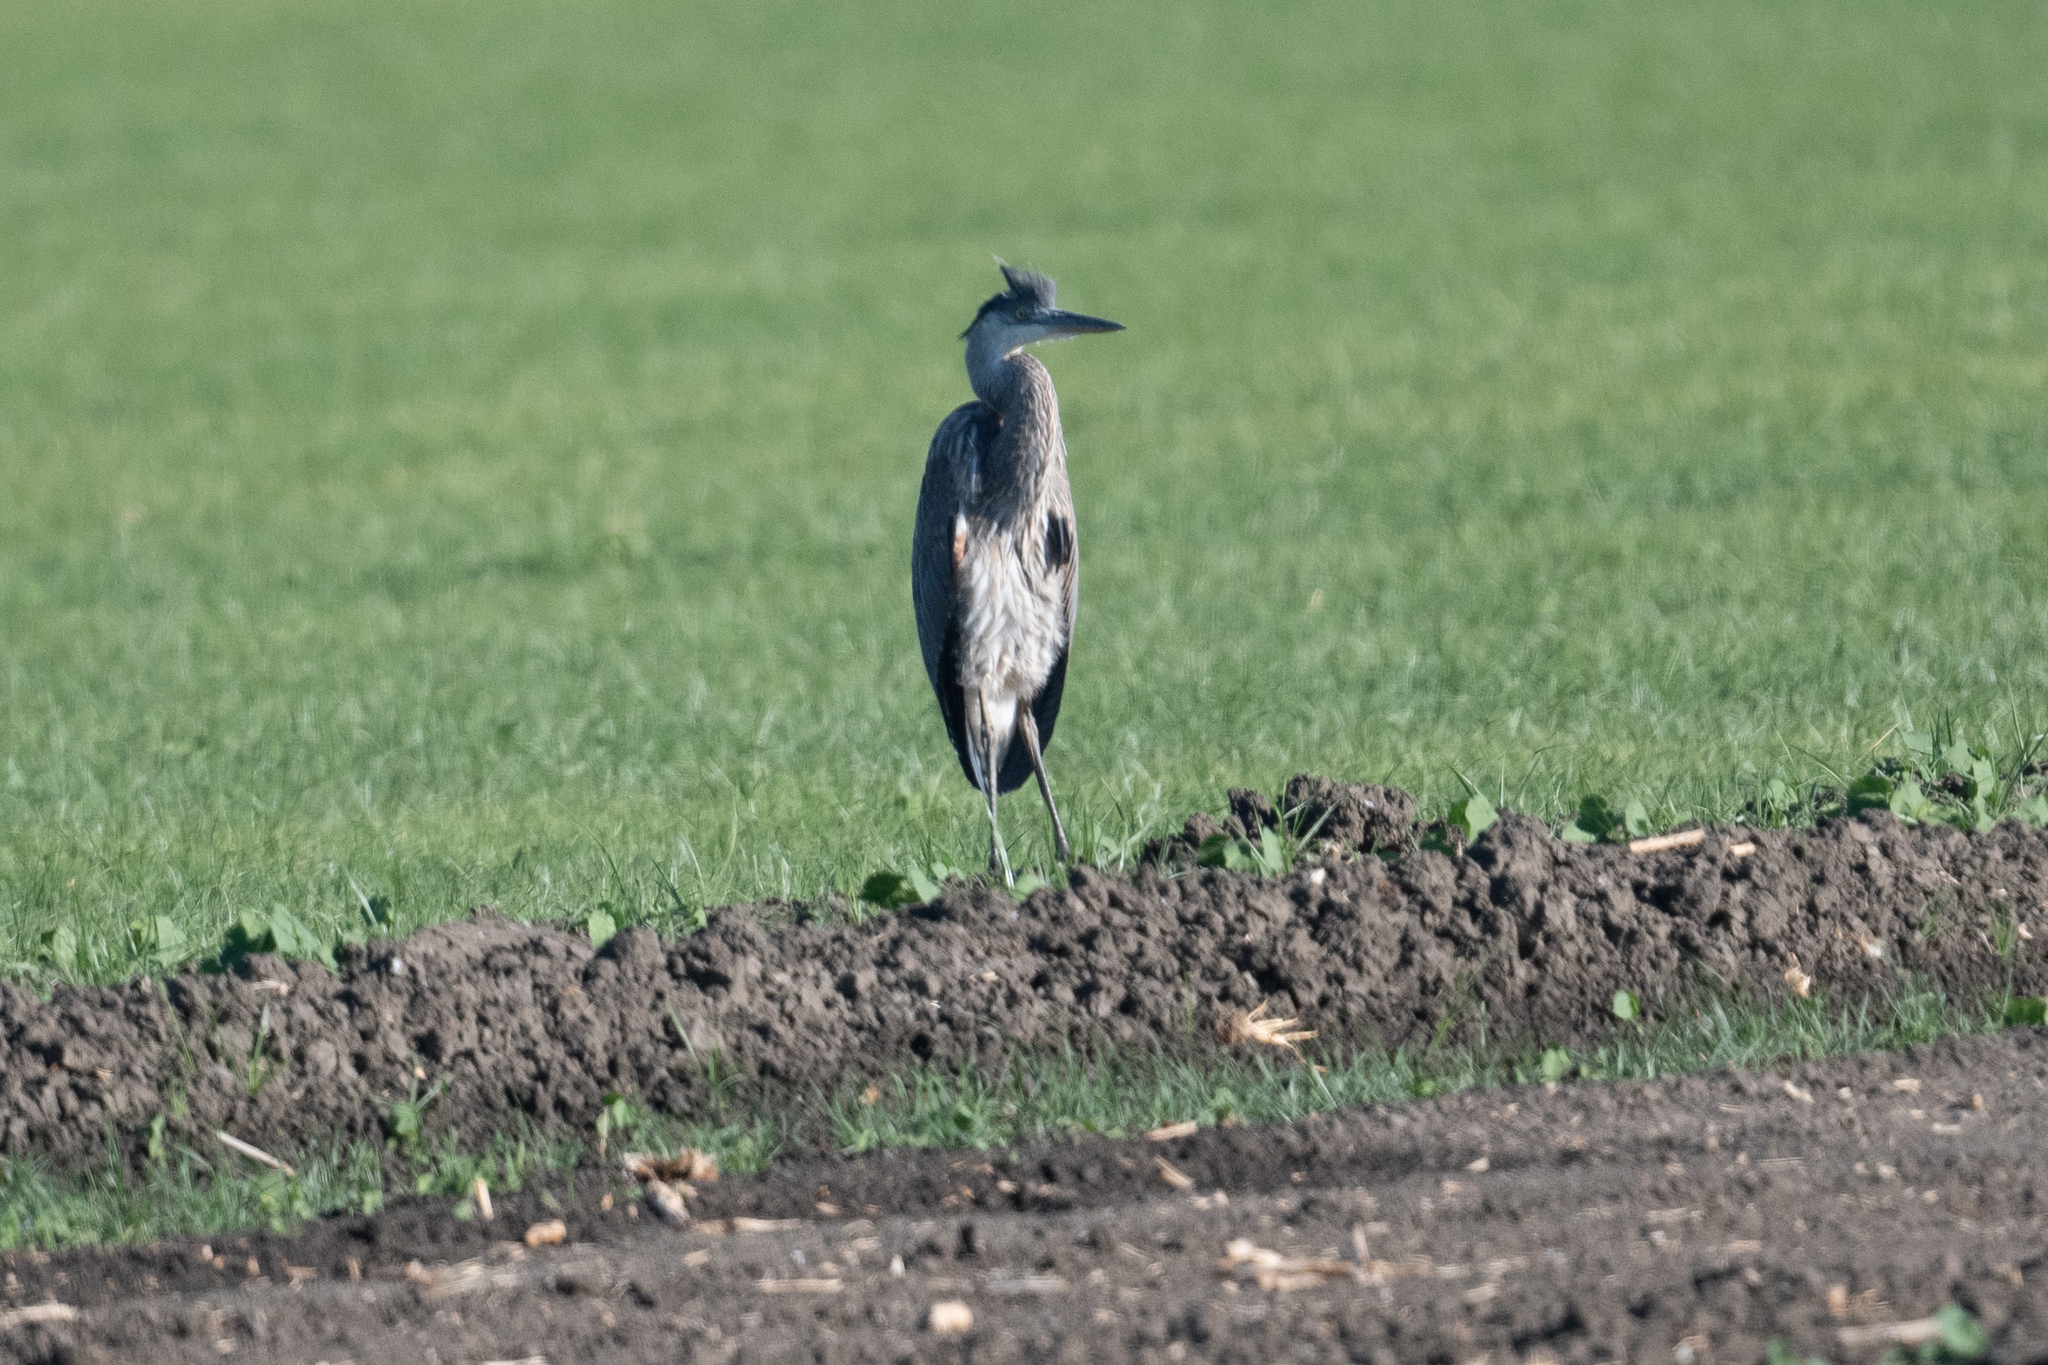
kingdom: Animalia
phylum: Chordata
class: Aves
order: Pelecaniformes
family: Ardeidae
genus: Ardea
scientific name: Ardea herodias
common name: Great blue heron
